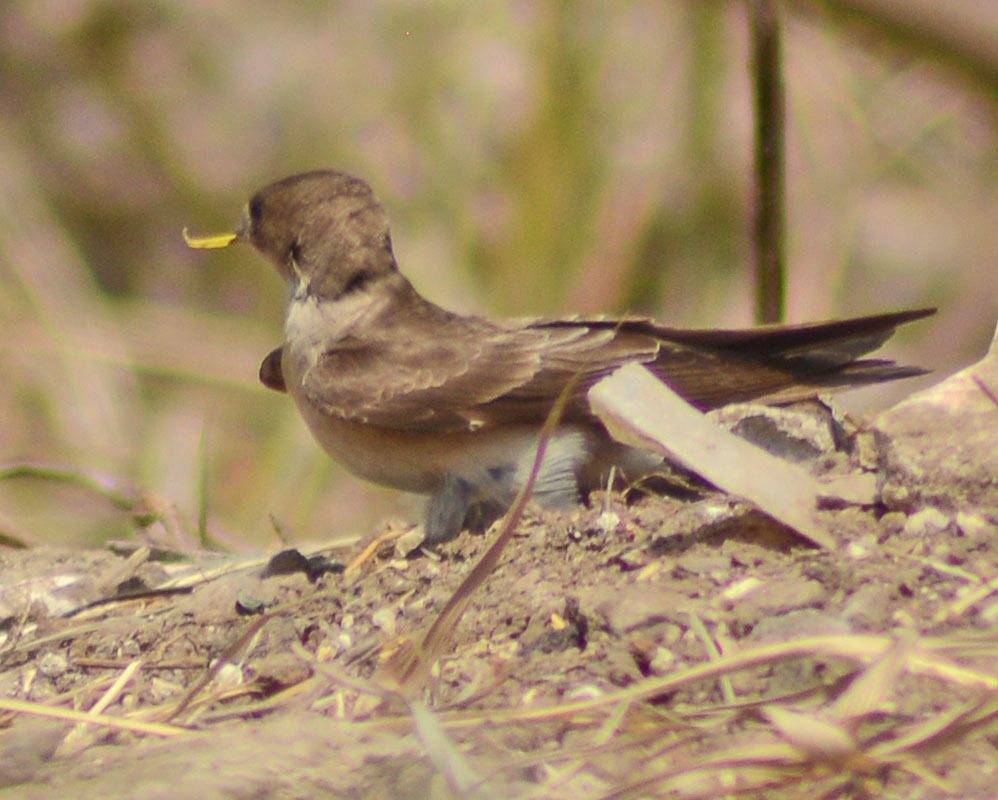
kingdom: Animalia
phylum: Chordata
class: Aves
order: Passeriformes
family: Hirundinidae
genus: Stelgidopteryx
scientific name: Stelgidopteryx serripennis
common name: Northern rough-winged swallow
